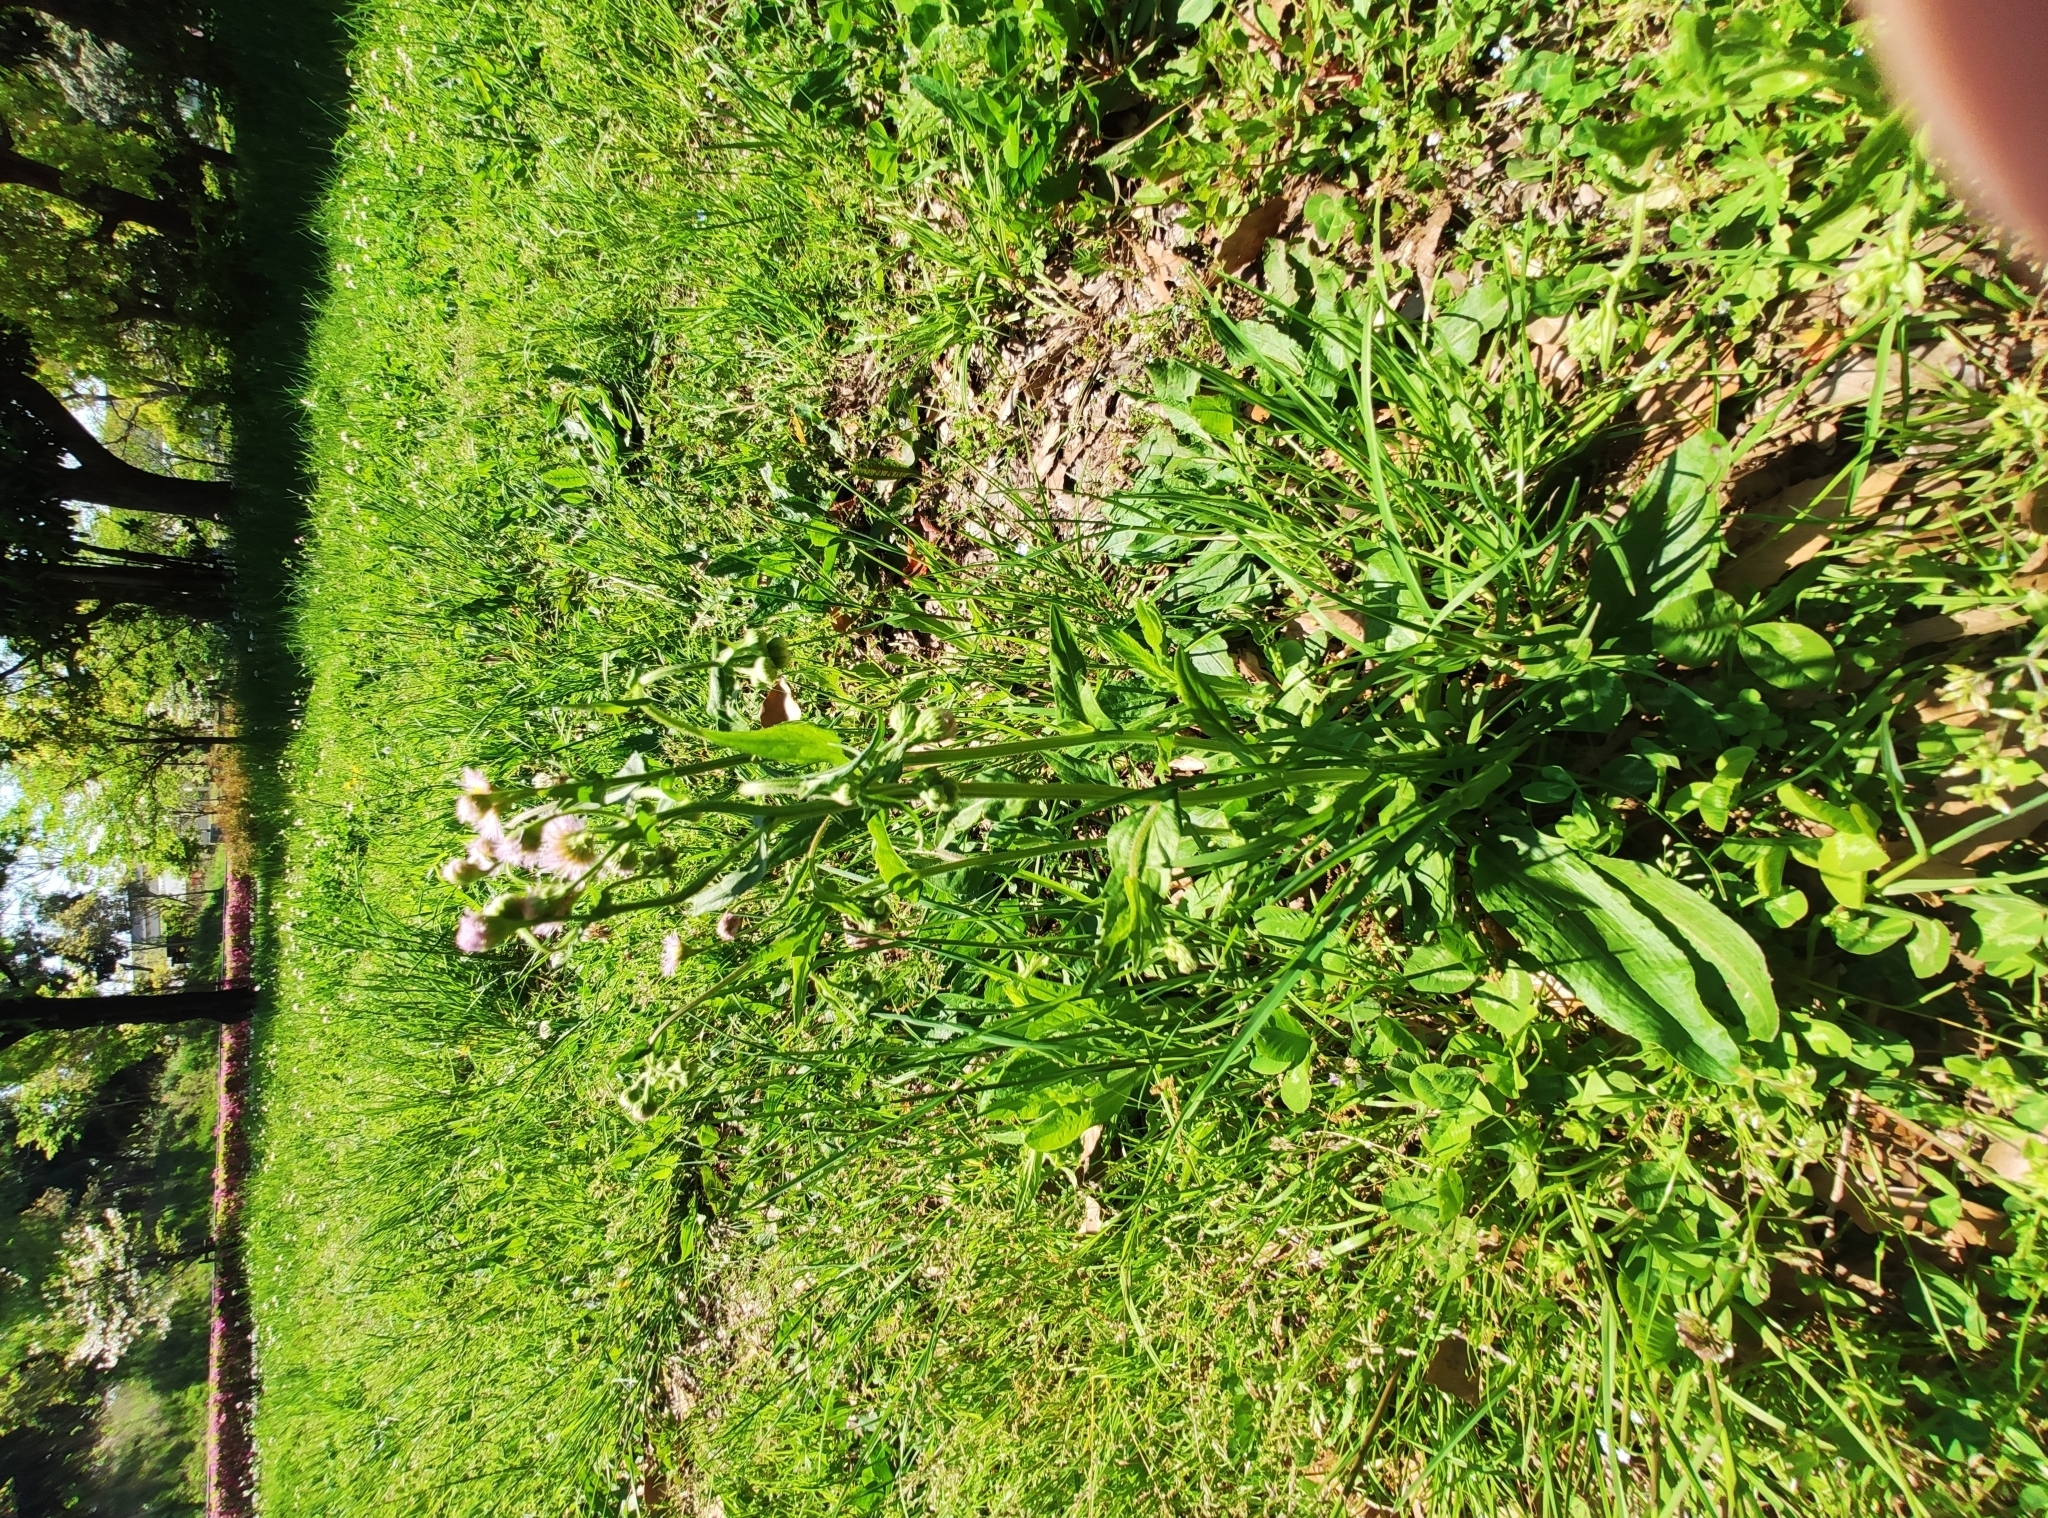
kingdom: Plantae
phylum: Tracheophyta
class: Magnoliopsida
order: Asterales
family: Asteraceae
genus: Erigeron
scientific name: Erigeron philadelphicus
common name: Robin's-plantain
